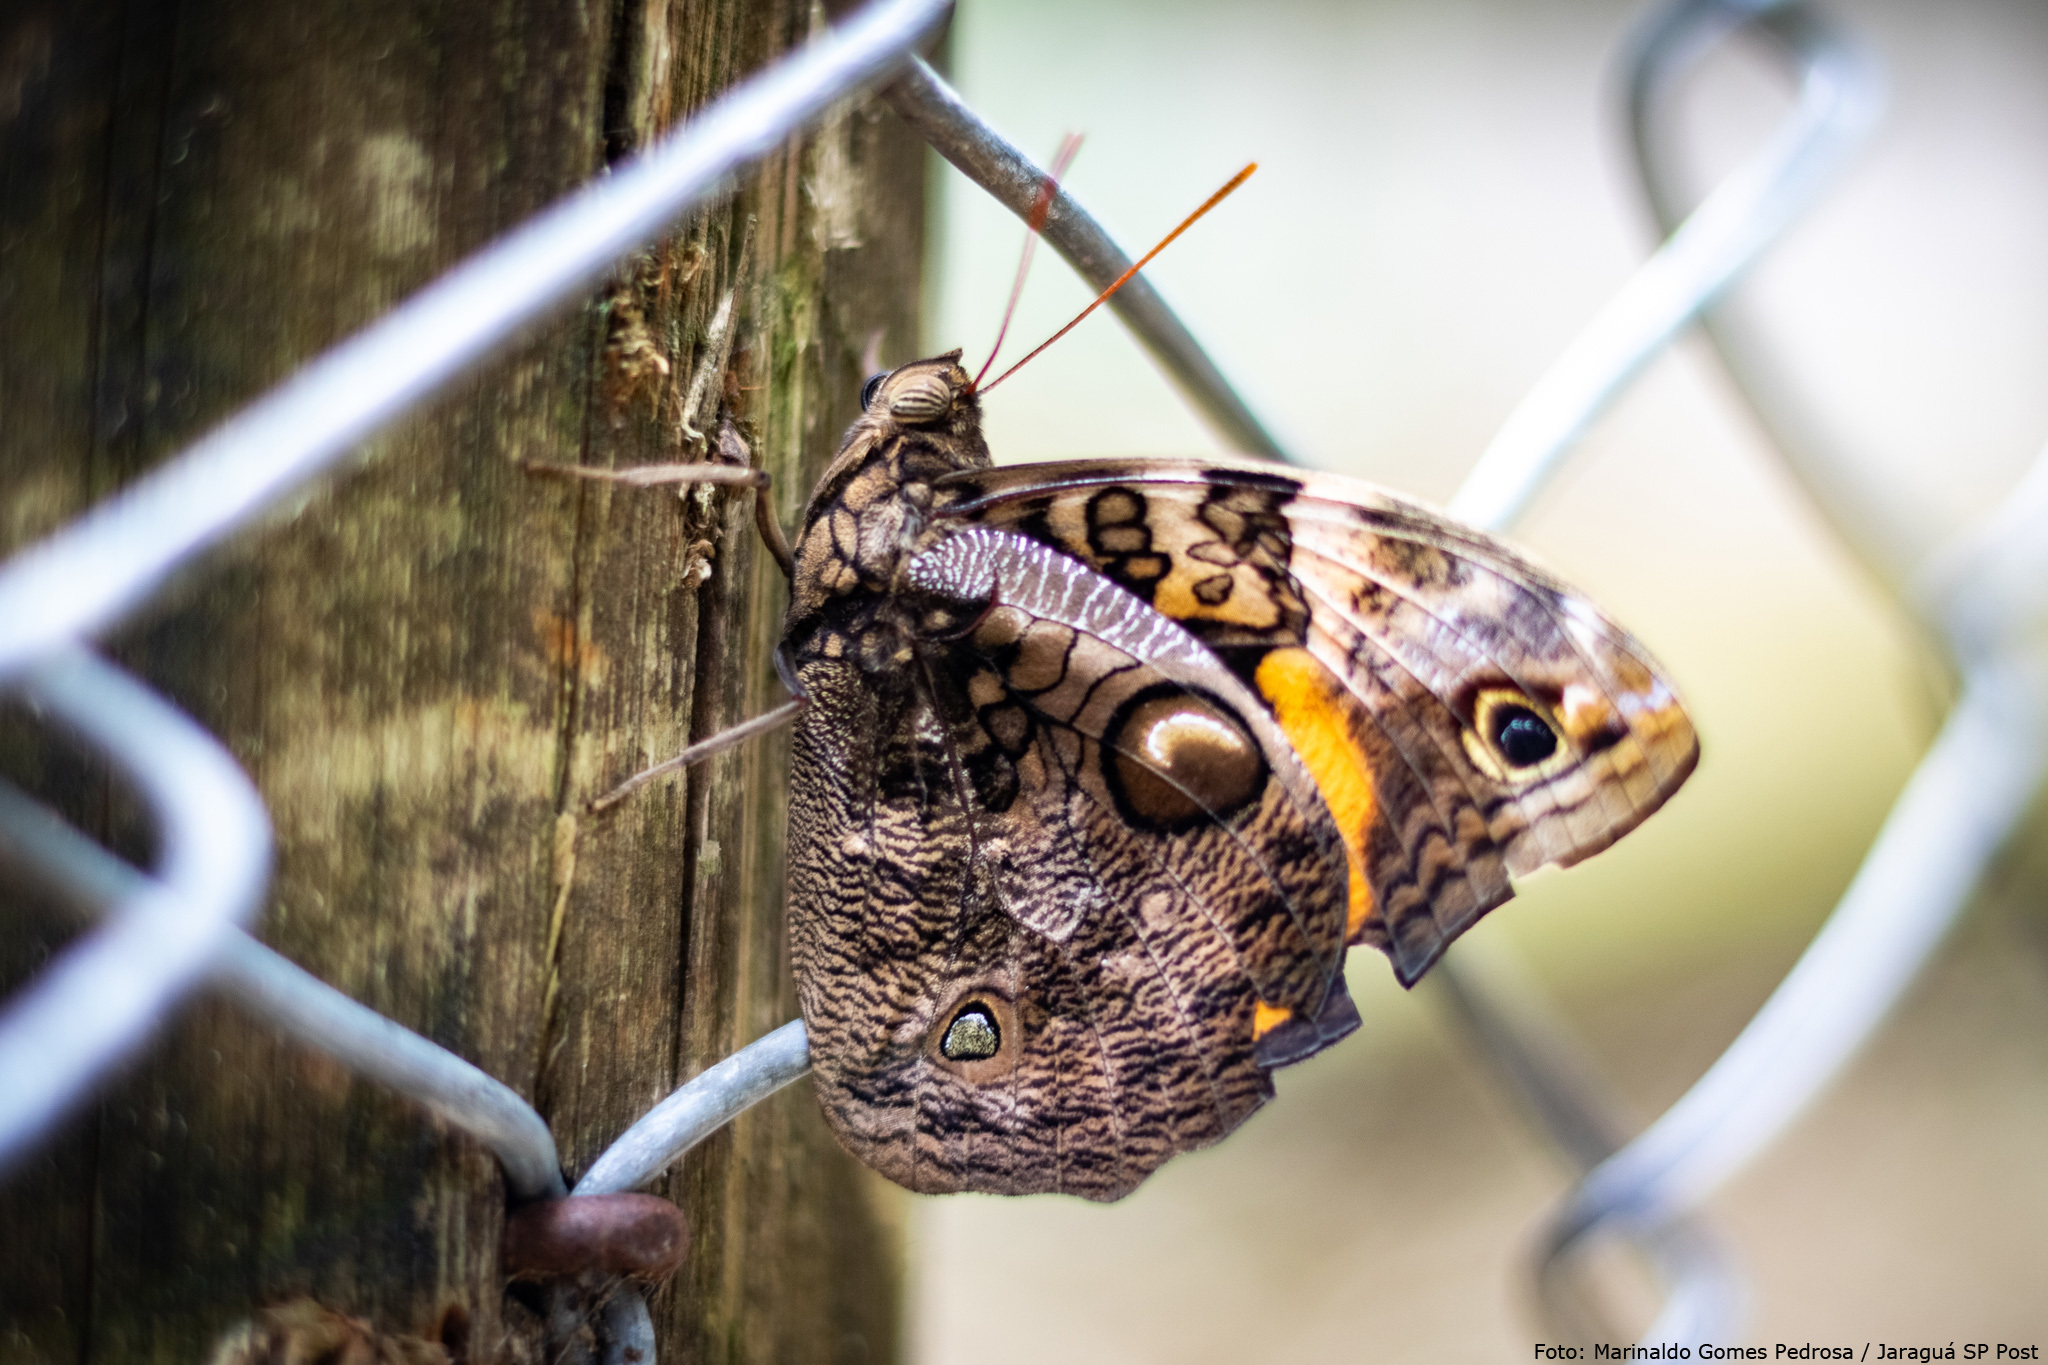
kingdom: Animalia
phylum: Arthropoda
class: Insecta
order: Lepidoptera
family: Nymphalidae
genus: Opsiphanes
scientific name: Opsiphanes invirae
